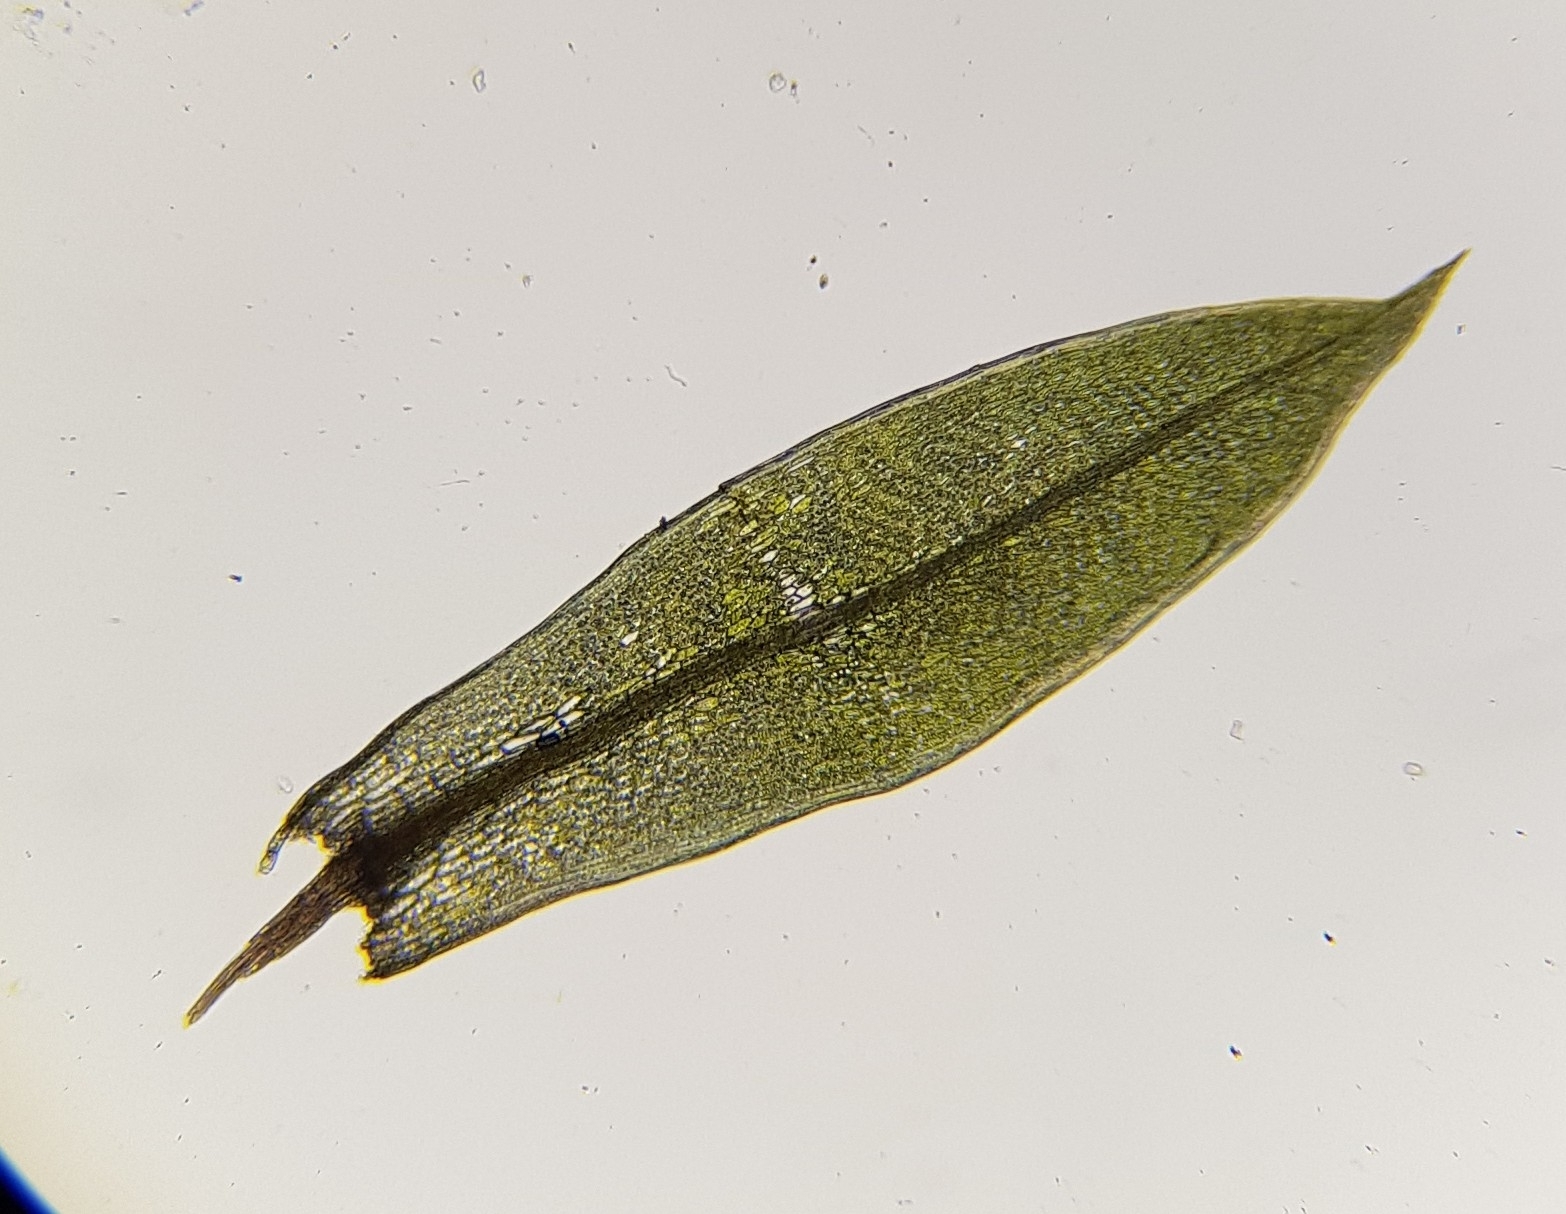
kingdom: Plantae
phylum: Bryophyta
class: Bryopsida
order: Bryales
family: Bryaceae
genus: Ptychostomum
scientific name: Ptychostomum pseudotriquetrum
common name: Long-leaved thread moss
